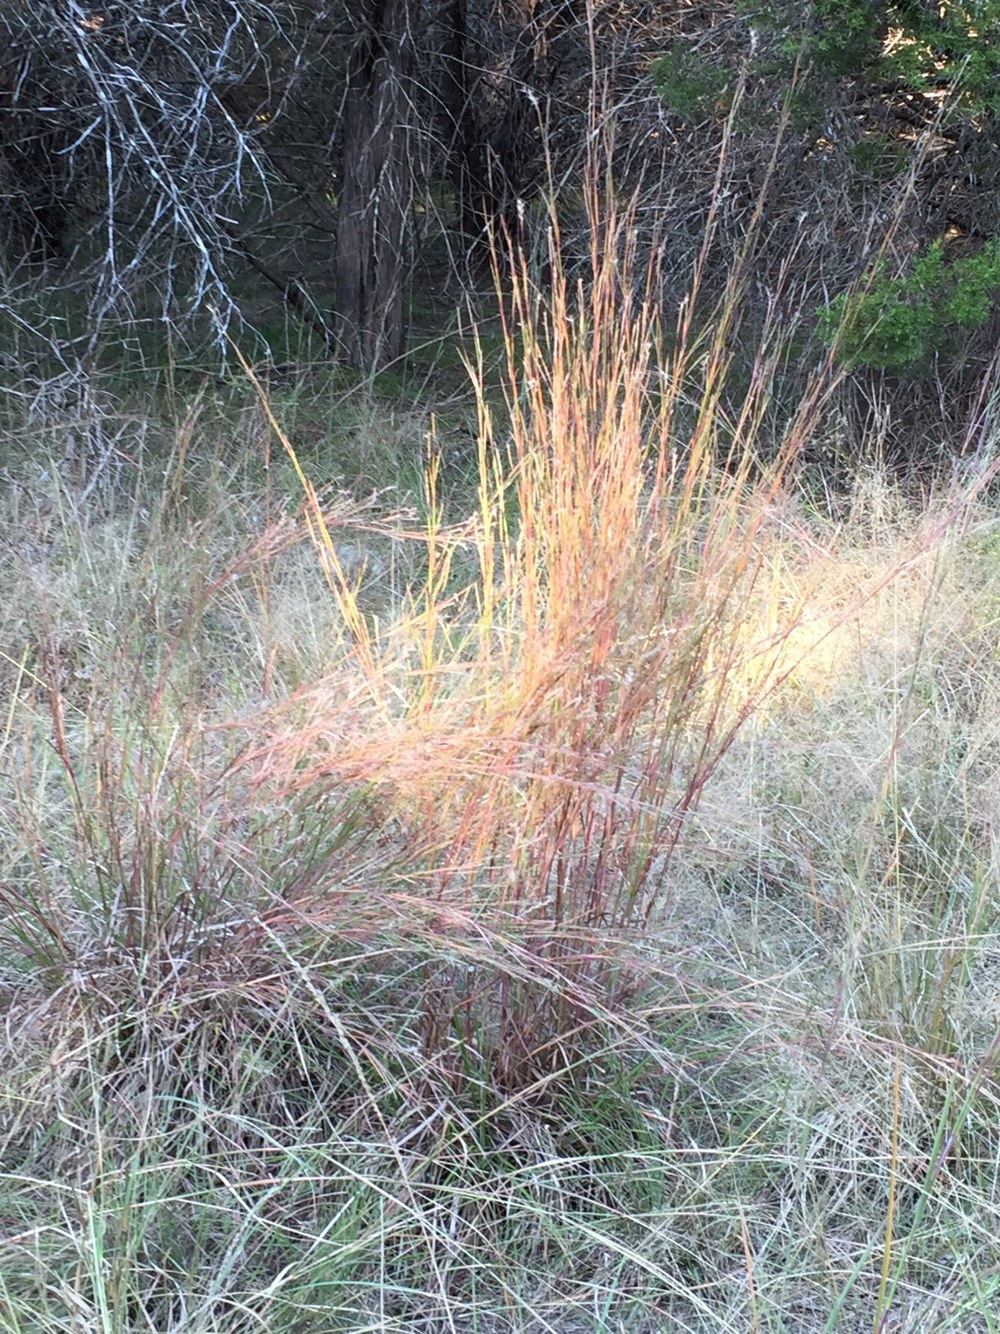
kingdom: Plantae
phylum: Tracheophyta
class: Liliopsida
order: Poales
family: Poaceae
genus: Schizachyrium
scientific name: Schizachyrium scoparium
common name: Little bluestem
